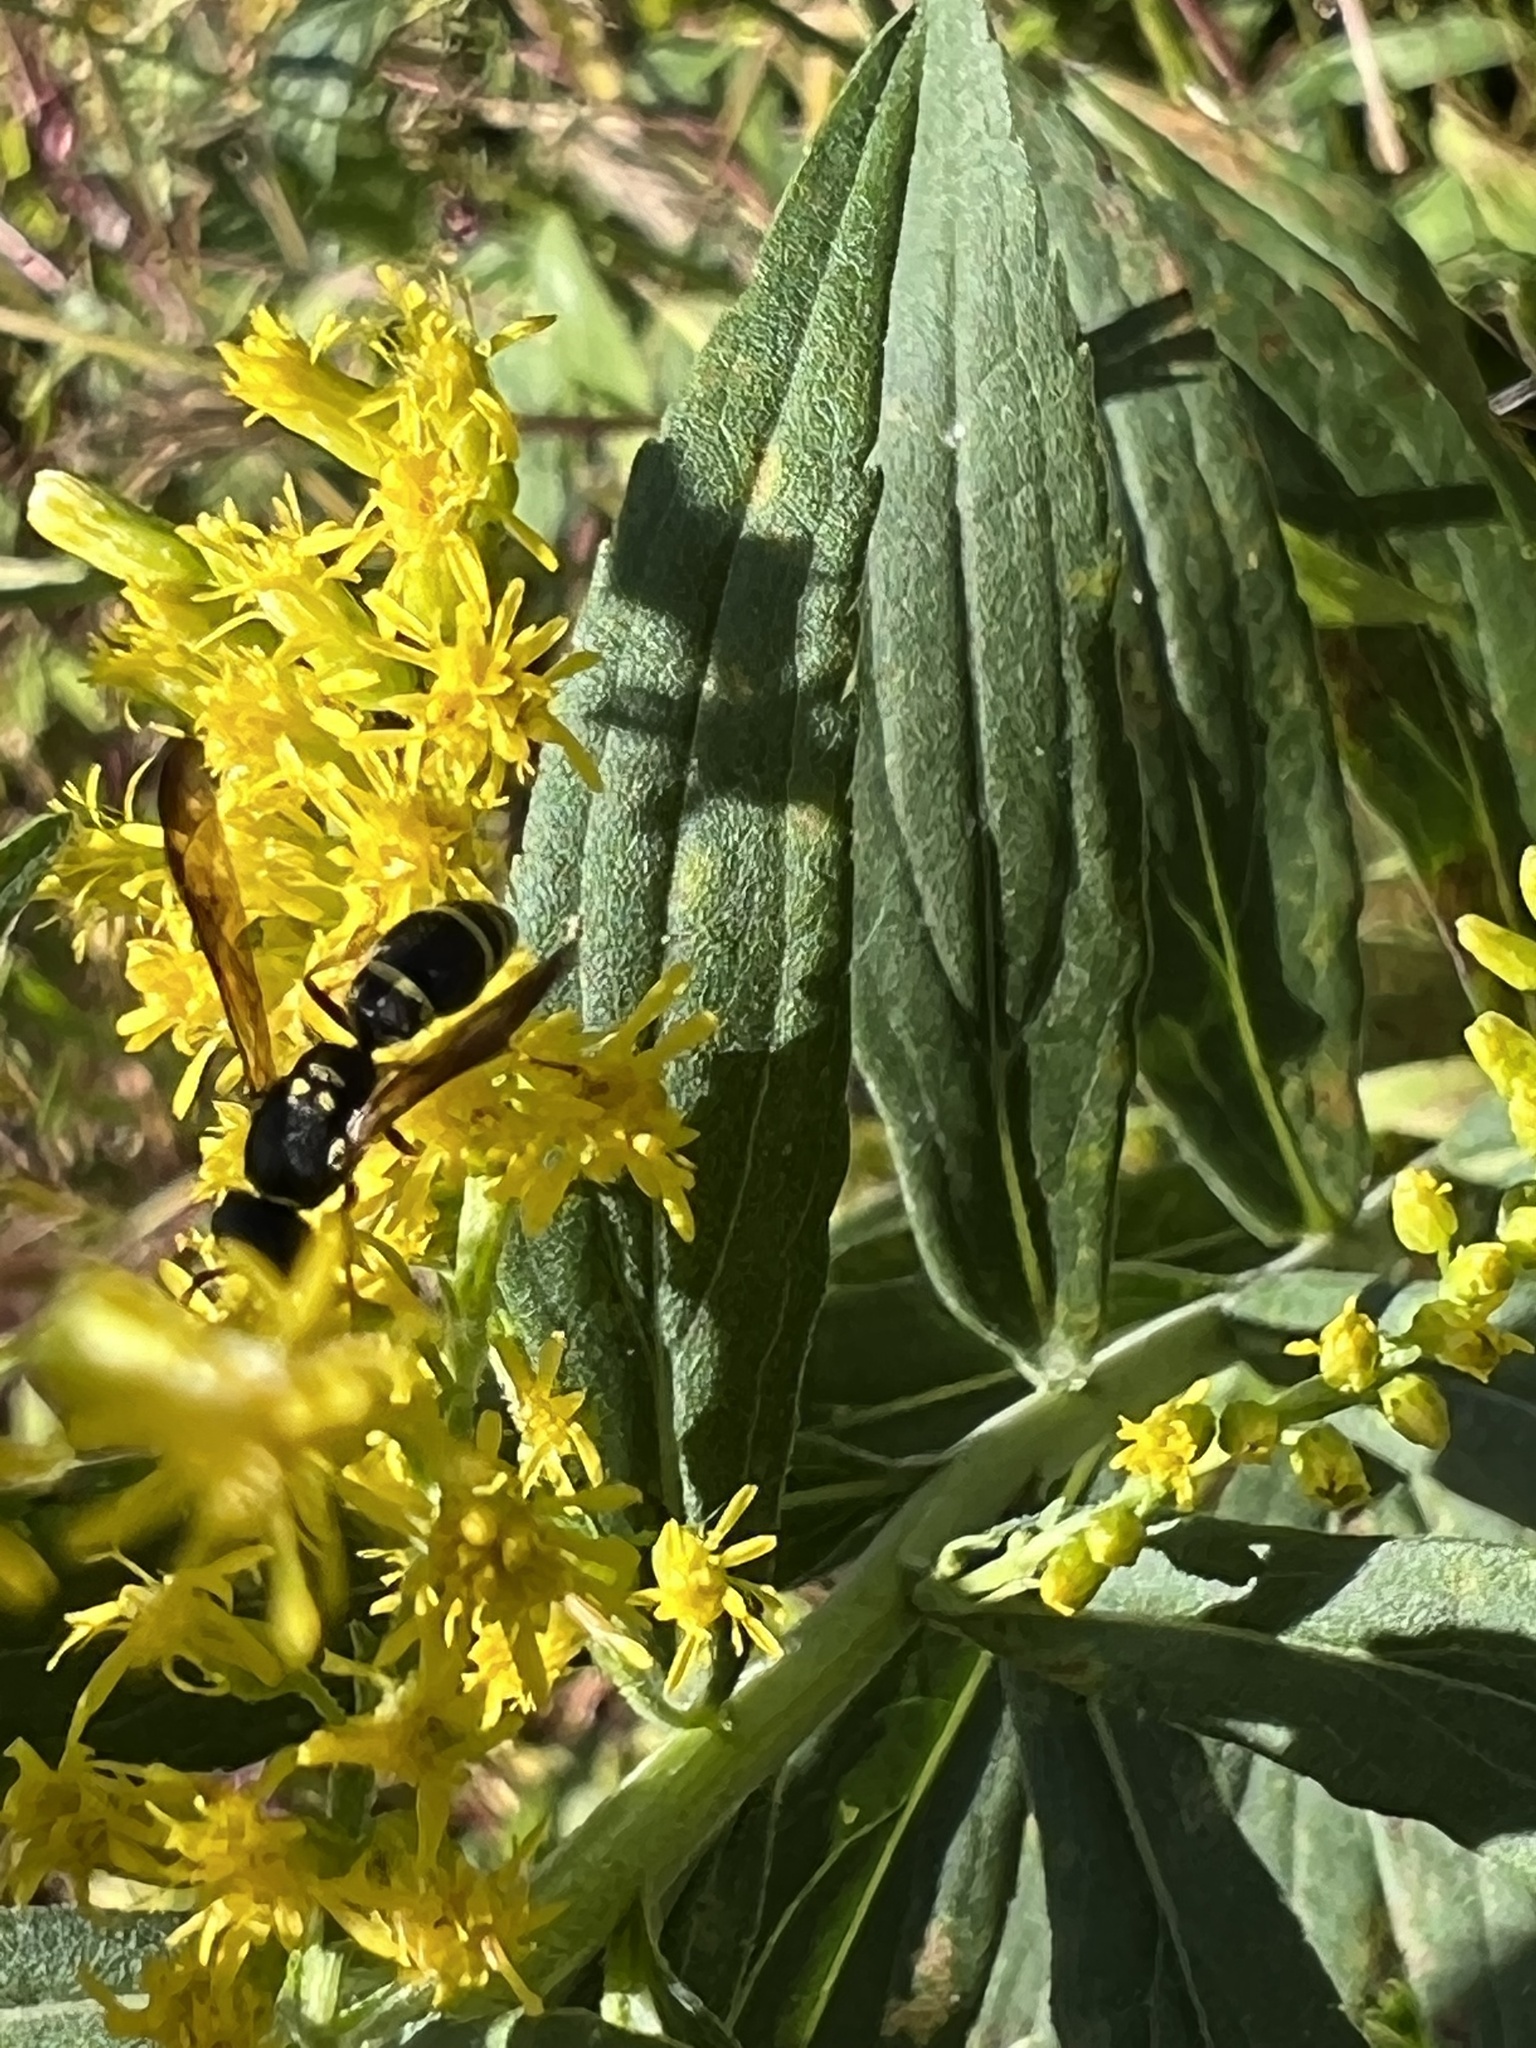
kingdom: Animalia
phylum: Arthropoda
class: Insecta
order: Hymenoptera
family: Vespidae
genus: Ancistrocerus
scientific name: Ancistrocerus adiabatus
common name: Bramble mason wasp
